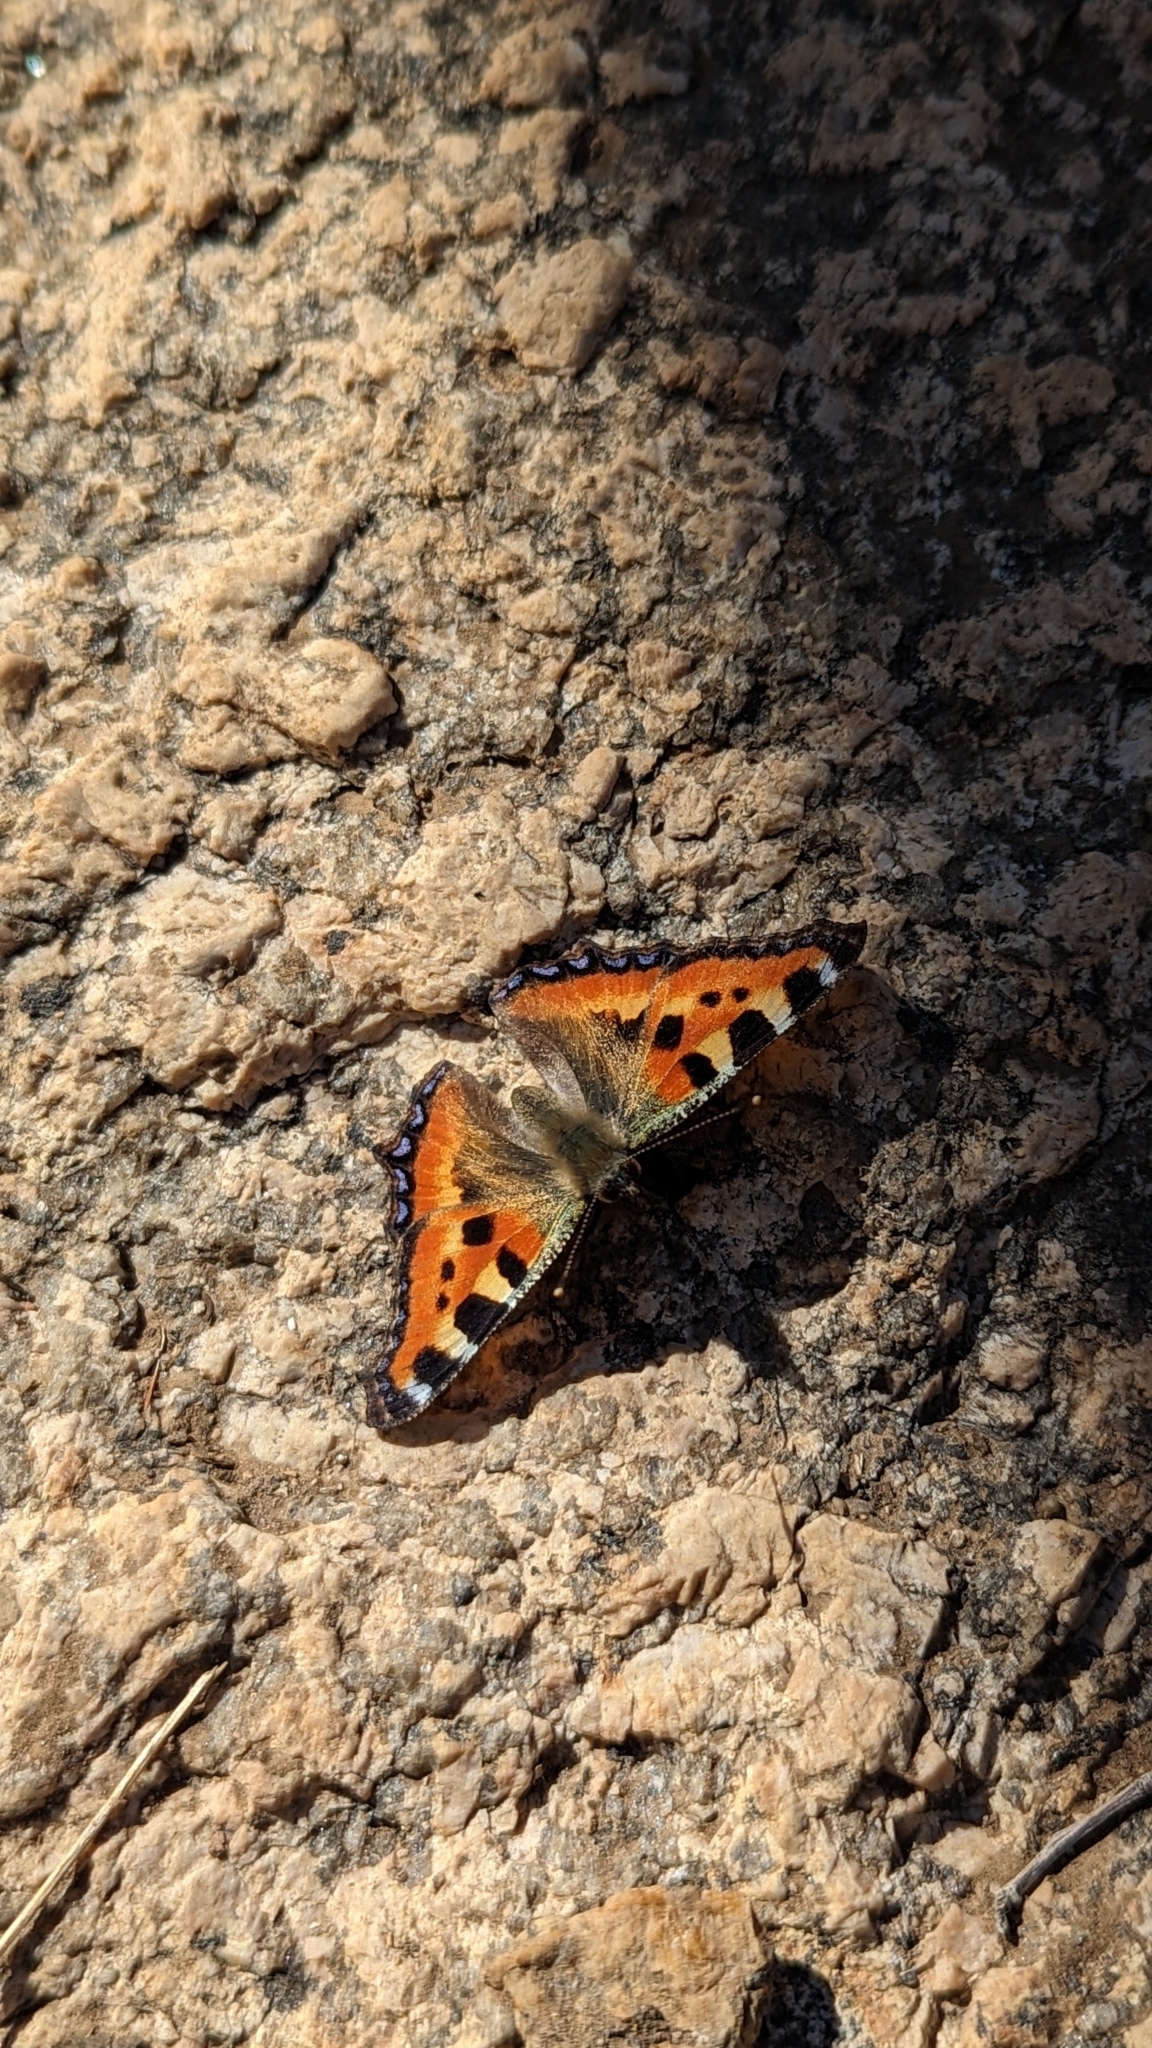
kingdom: Animalia
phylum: Arthropoda
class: Insecta
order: Lepidoptera
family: Nymphalidae
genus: Aglais
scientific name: Aglais urticae
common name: Small tortoiseshell
